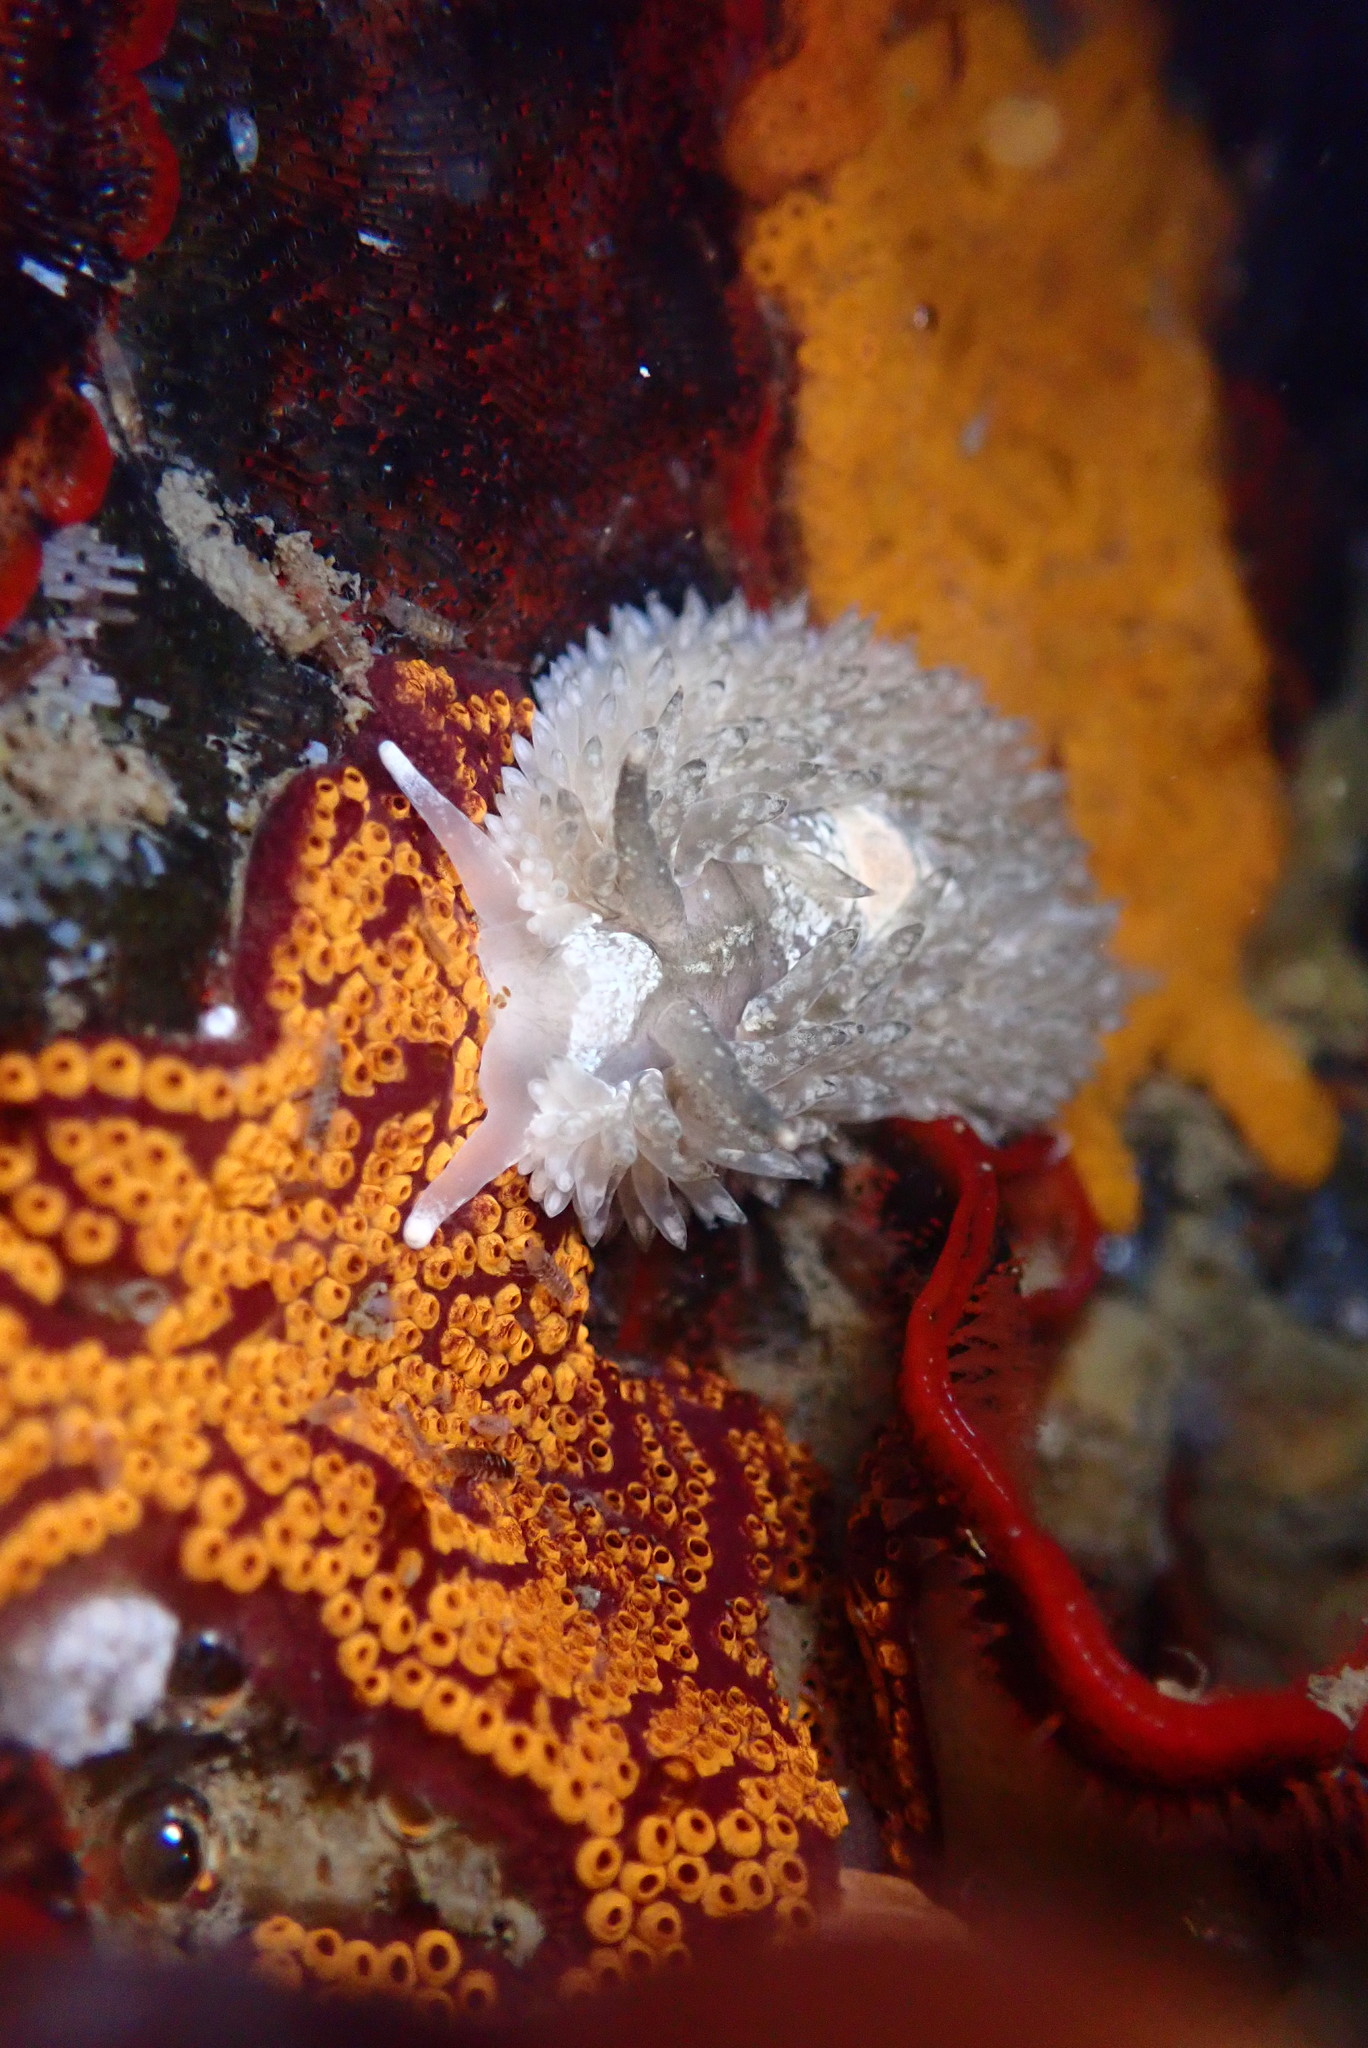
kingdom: Animalia
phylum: Mollusca
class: Gastropoda
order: Nudibranchia
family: Aeolidiidae
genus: Aeolidia
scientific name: Aeolidia loui
